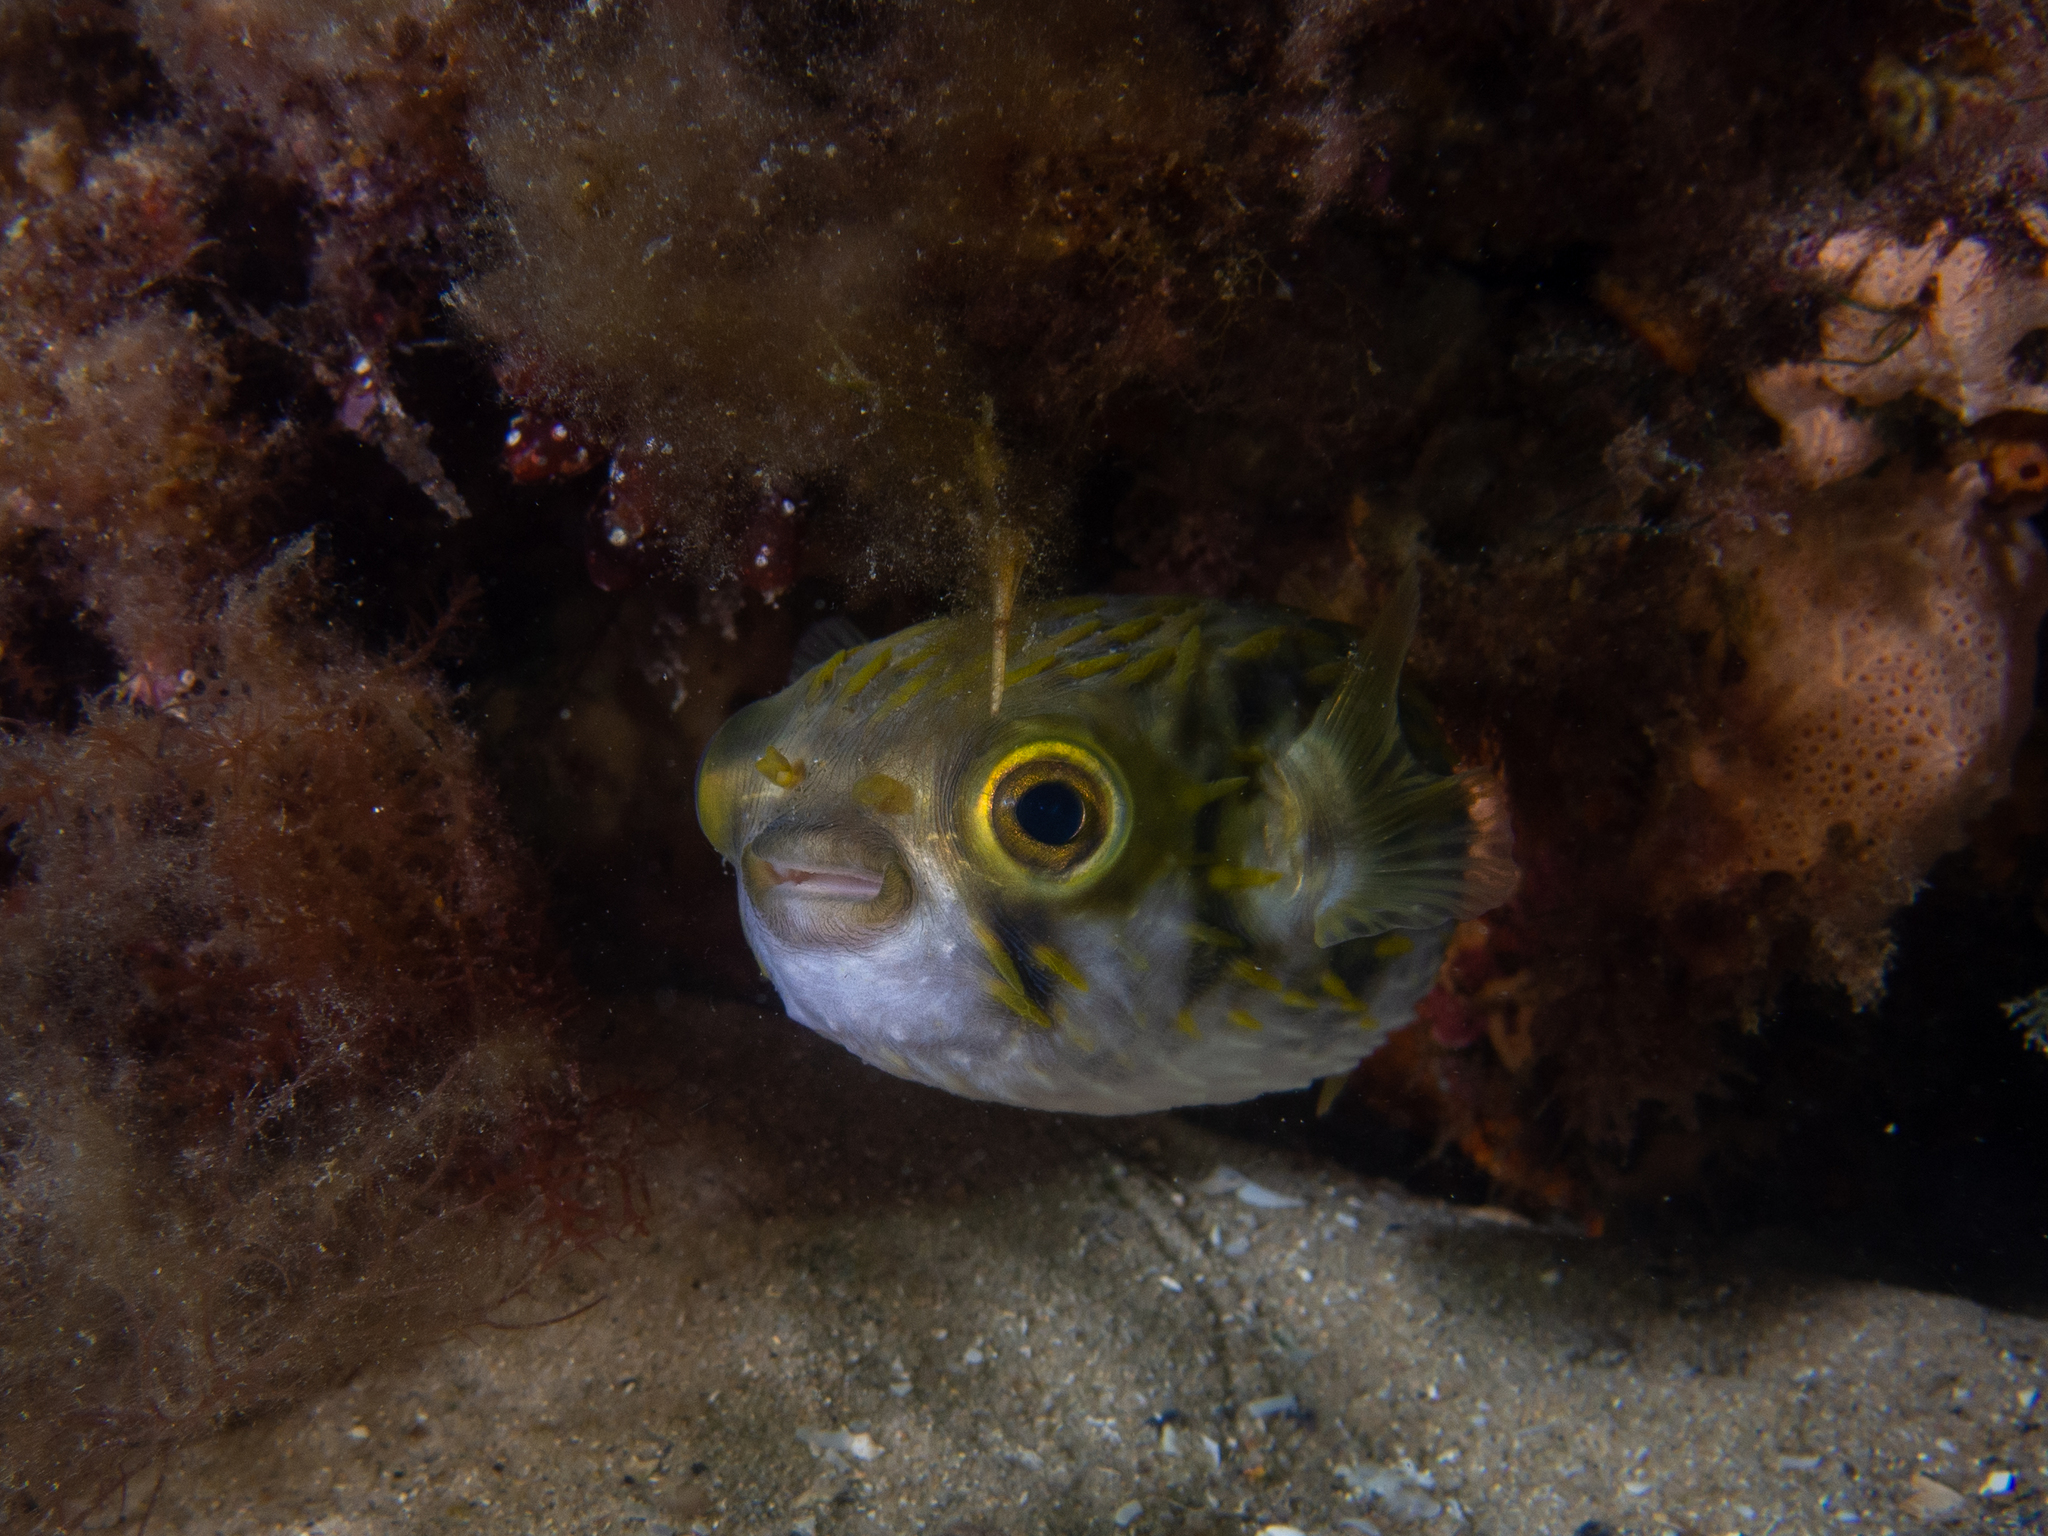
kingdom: Animalia
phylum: Chordata
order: Tetraodontiformes
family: Diodontidae
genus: Diodon
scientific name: Diodon nicthemerus
